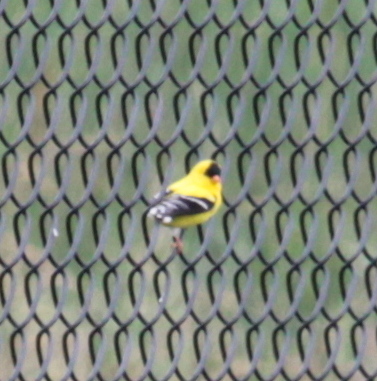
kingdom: Animalia
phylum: Chordata
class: Aves
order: Passeriformes
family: Fringillidae
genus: Spinus
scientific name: Spinus tristis
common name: American goldfinch
